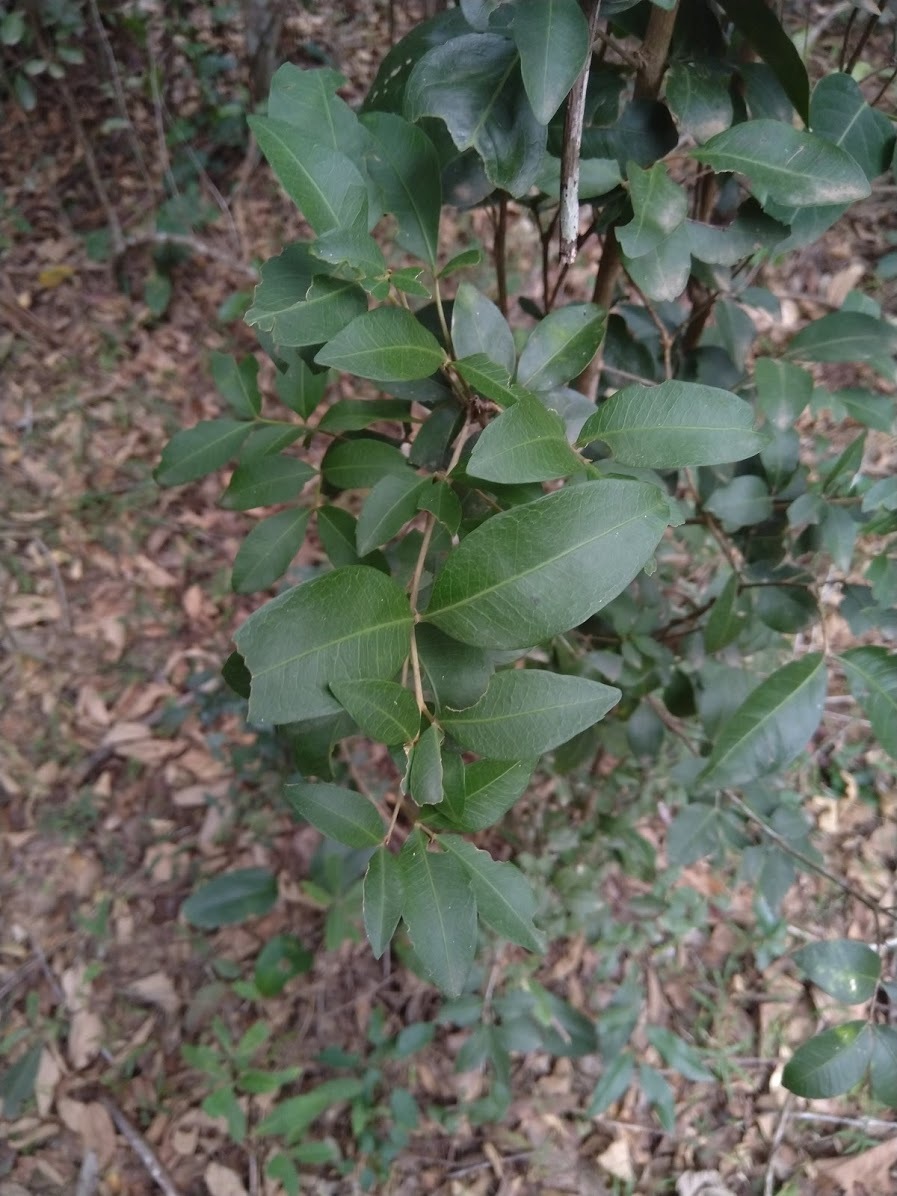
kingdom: Plantae
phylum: Tracheophyta
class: Magnoliopsida
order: Sapindales
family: Sapindaceae
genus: Arytera
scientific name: Arytera microphylla
